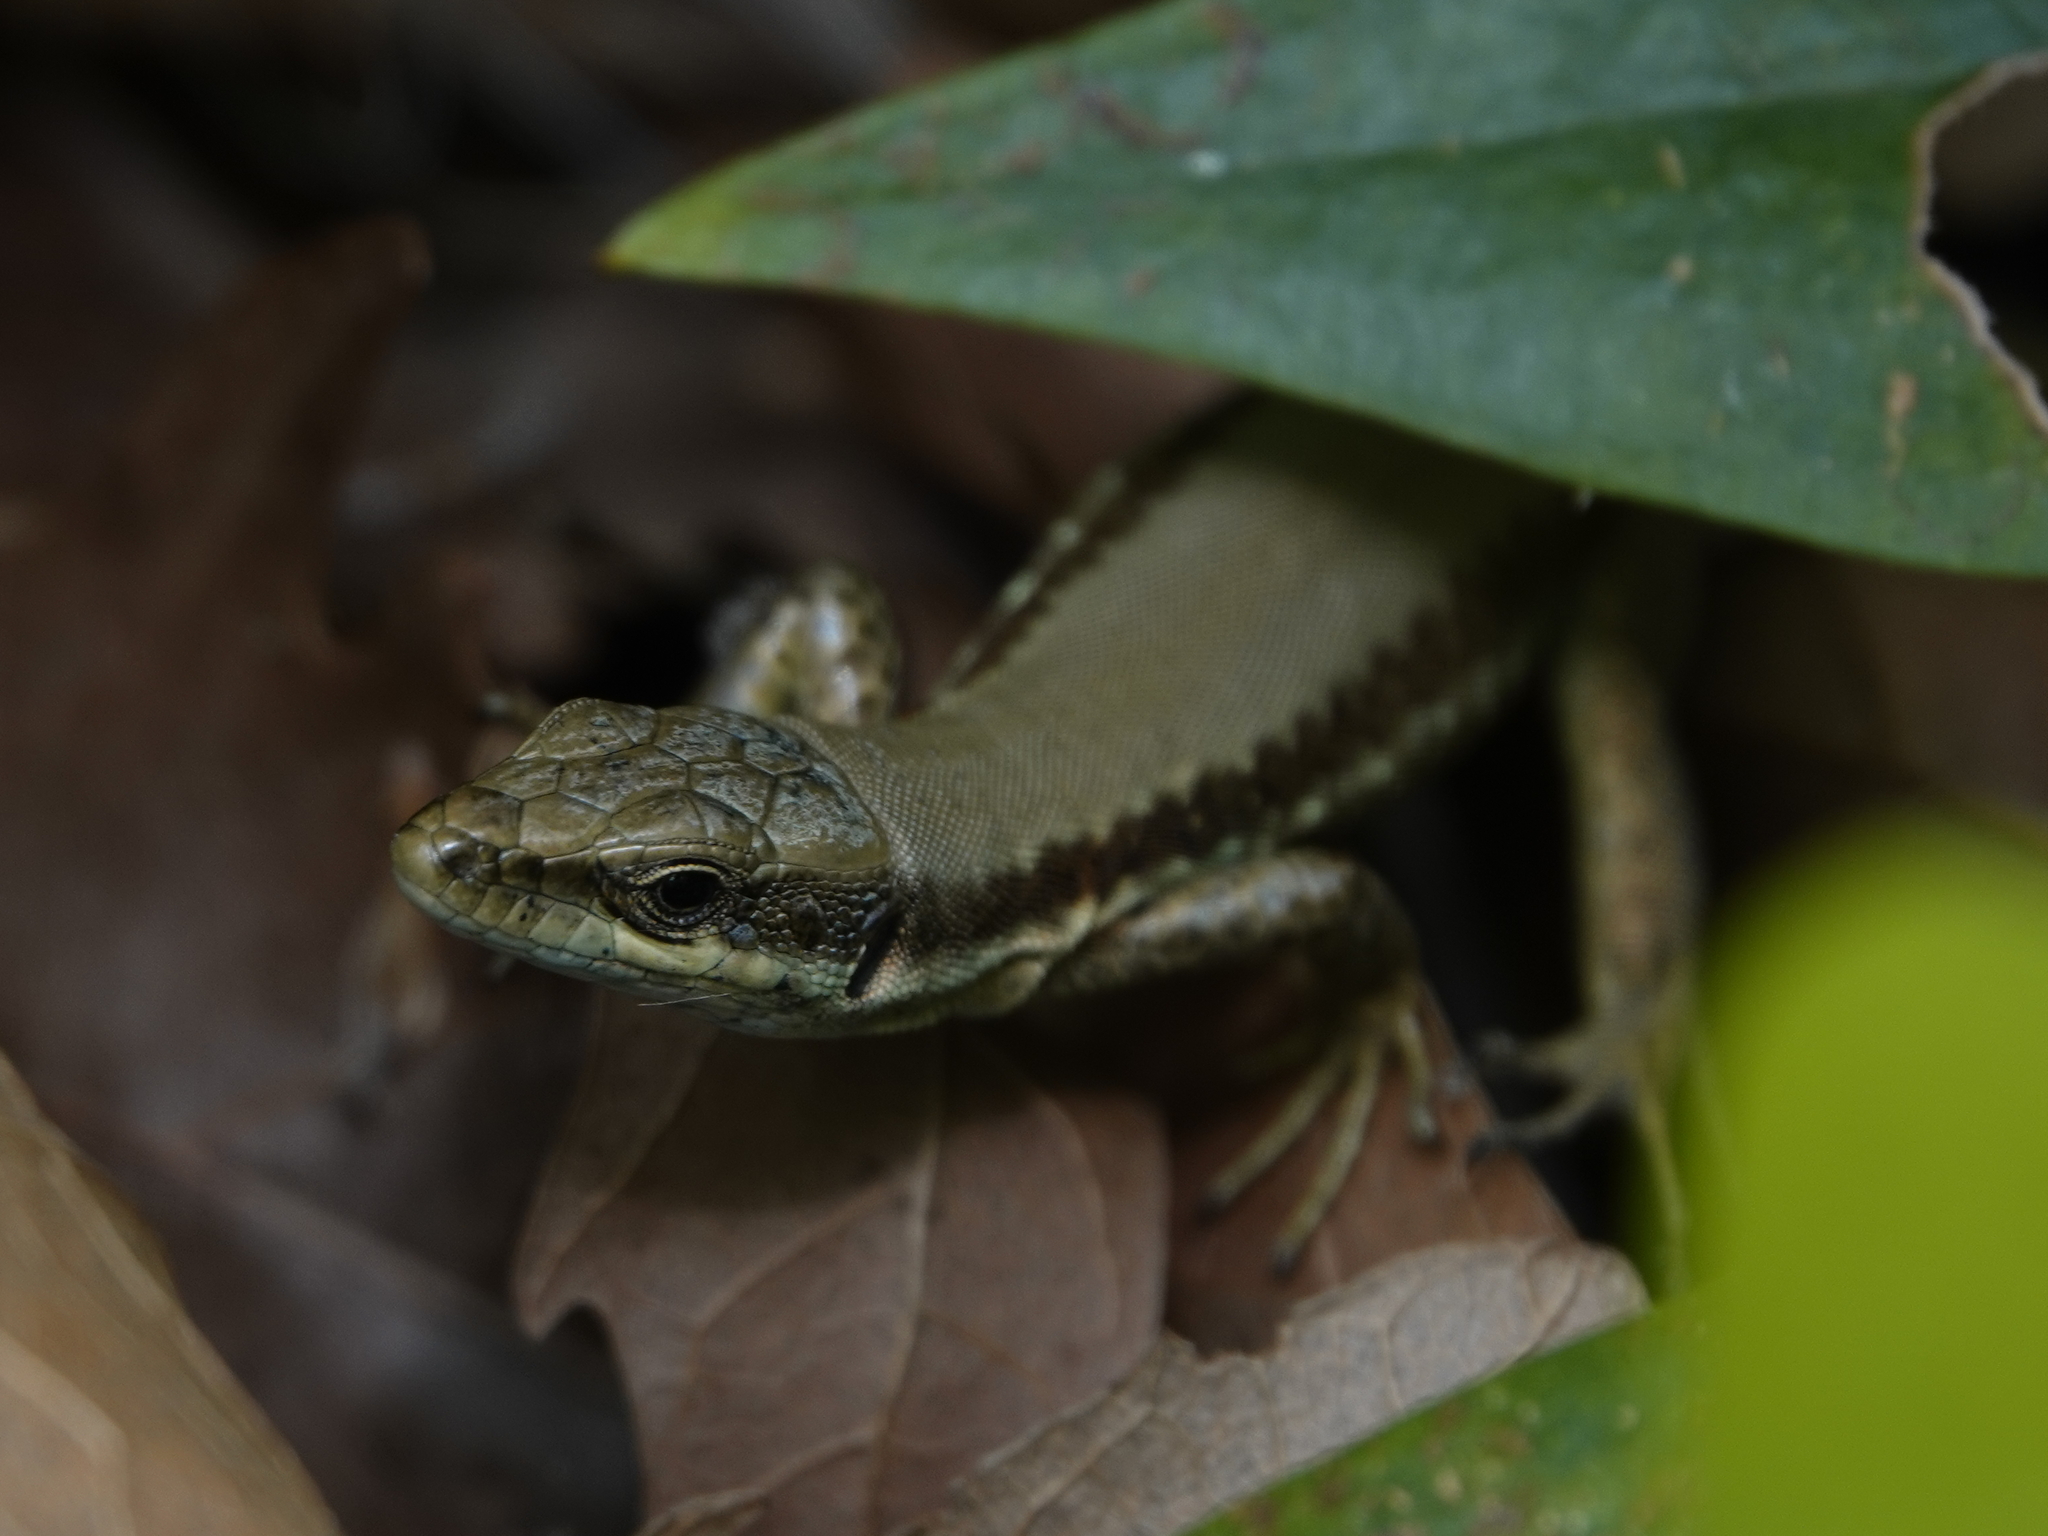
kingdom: Animalia
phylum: Chordata
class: Squamata
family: Lacertidae
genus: Phoenicolacerta
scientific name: Phoenicolacerta laevis
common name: Lebanon lizard
